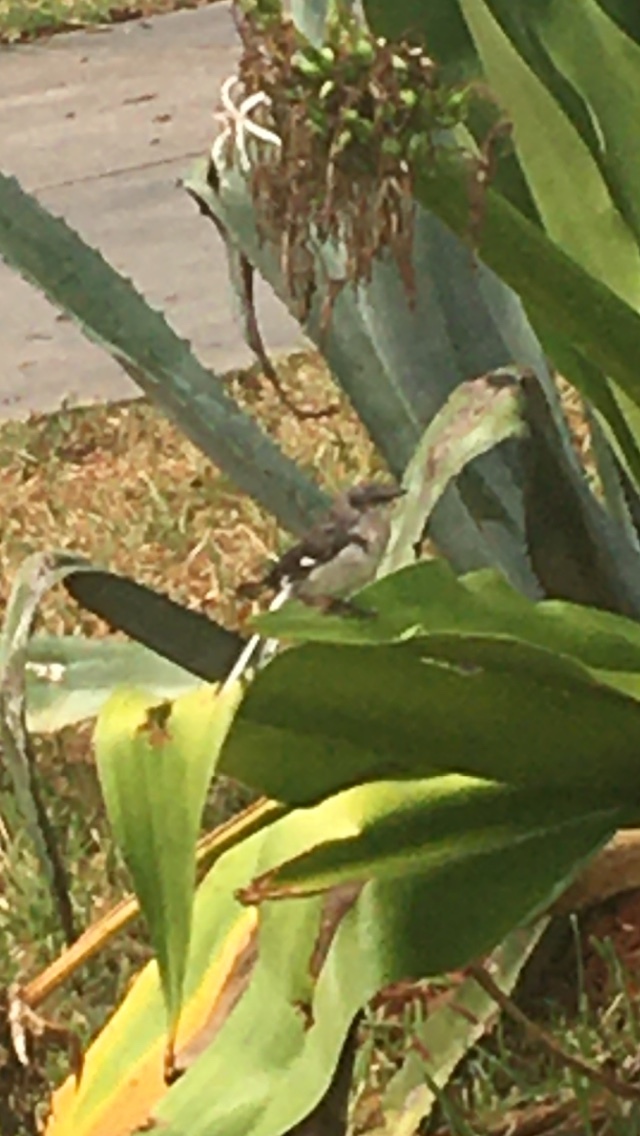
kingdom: Animalia
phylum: Chordata
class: Aves
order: Passeriformes
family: Mimidae
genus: Mimus
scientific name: Mimus polyglottos
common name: Northern mockingbird
